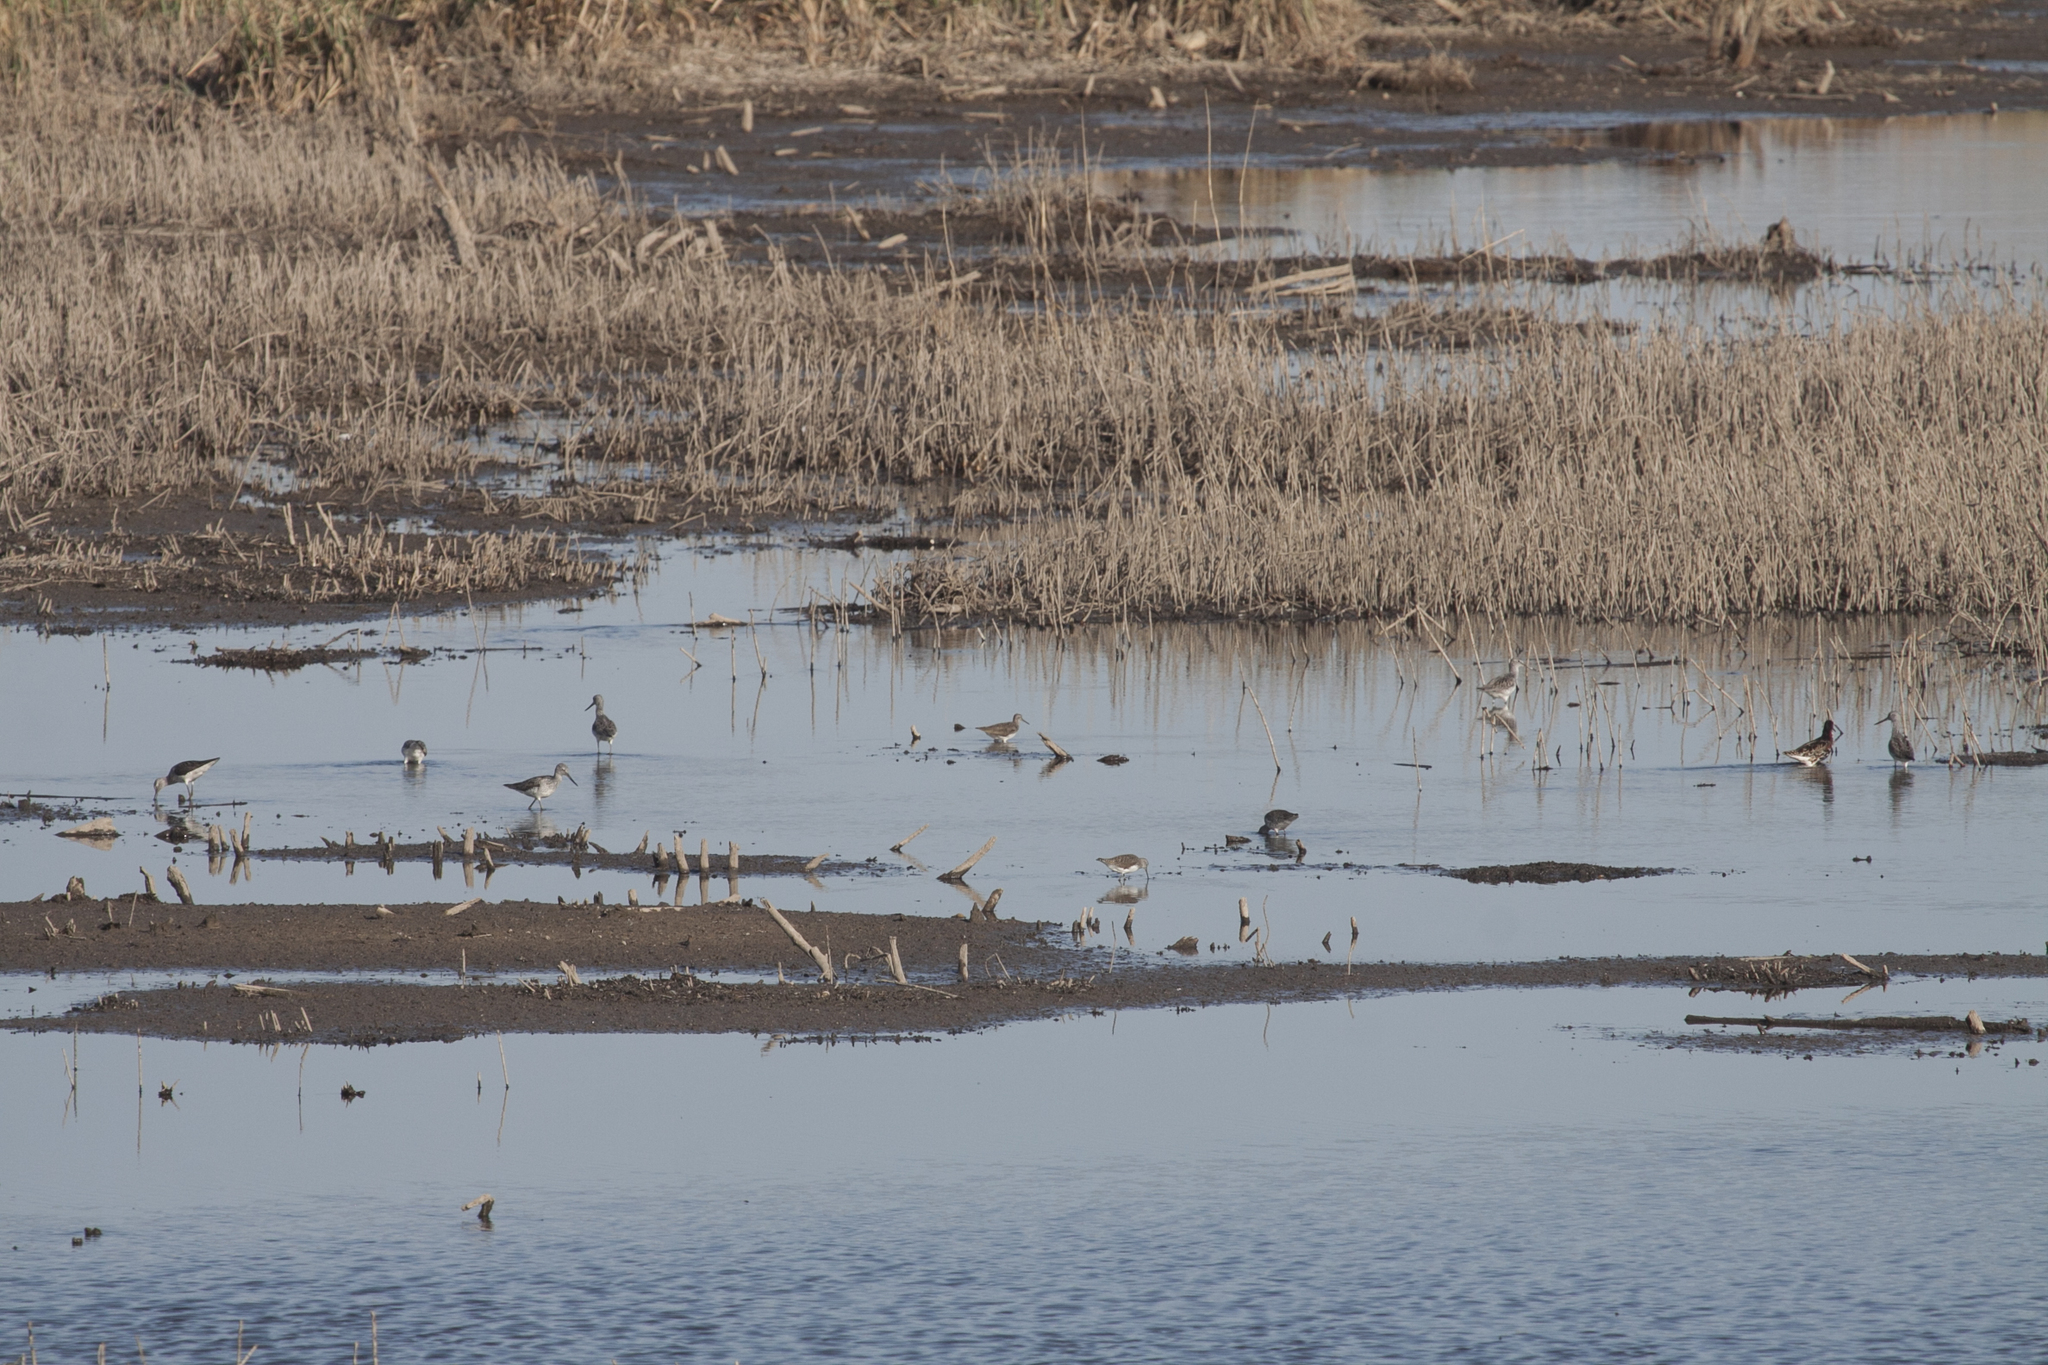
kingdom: Animalia
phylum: Chordata
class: Aves
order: Charadriiformes
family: Scolopacidae
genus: Tringa
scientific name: Tringa nebularia
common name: Common greenshank
